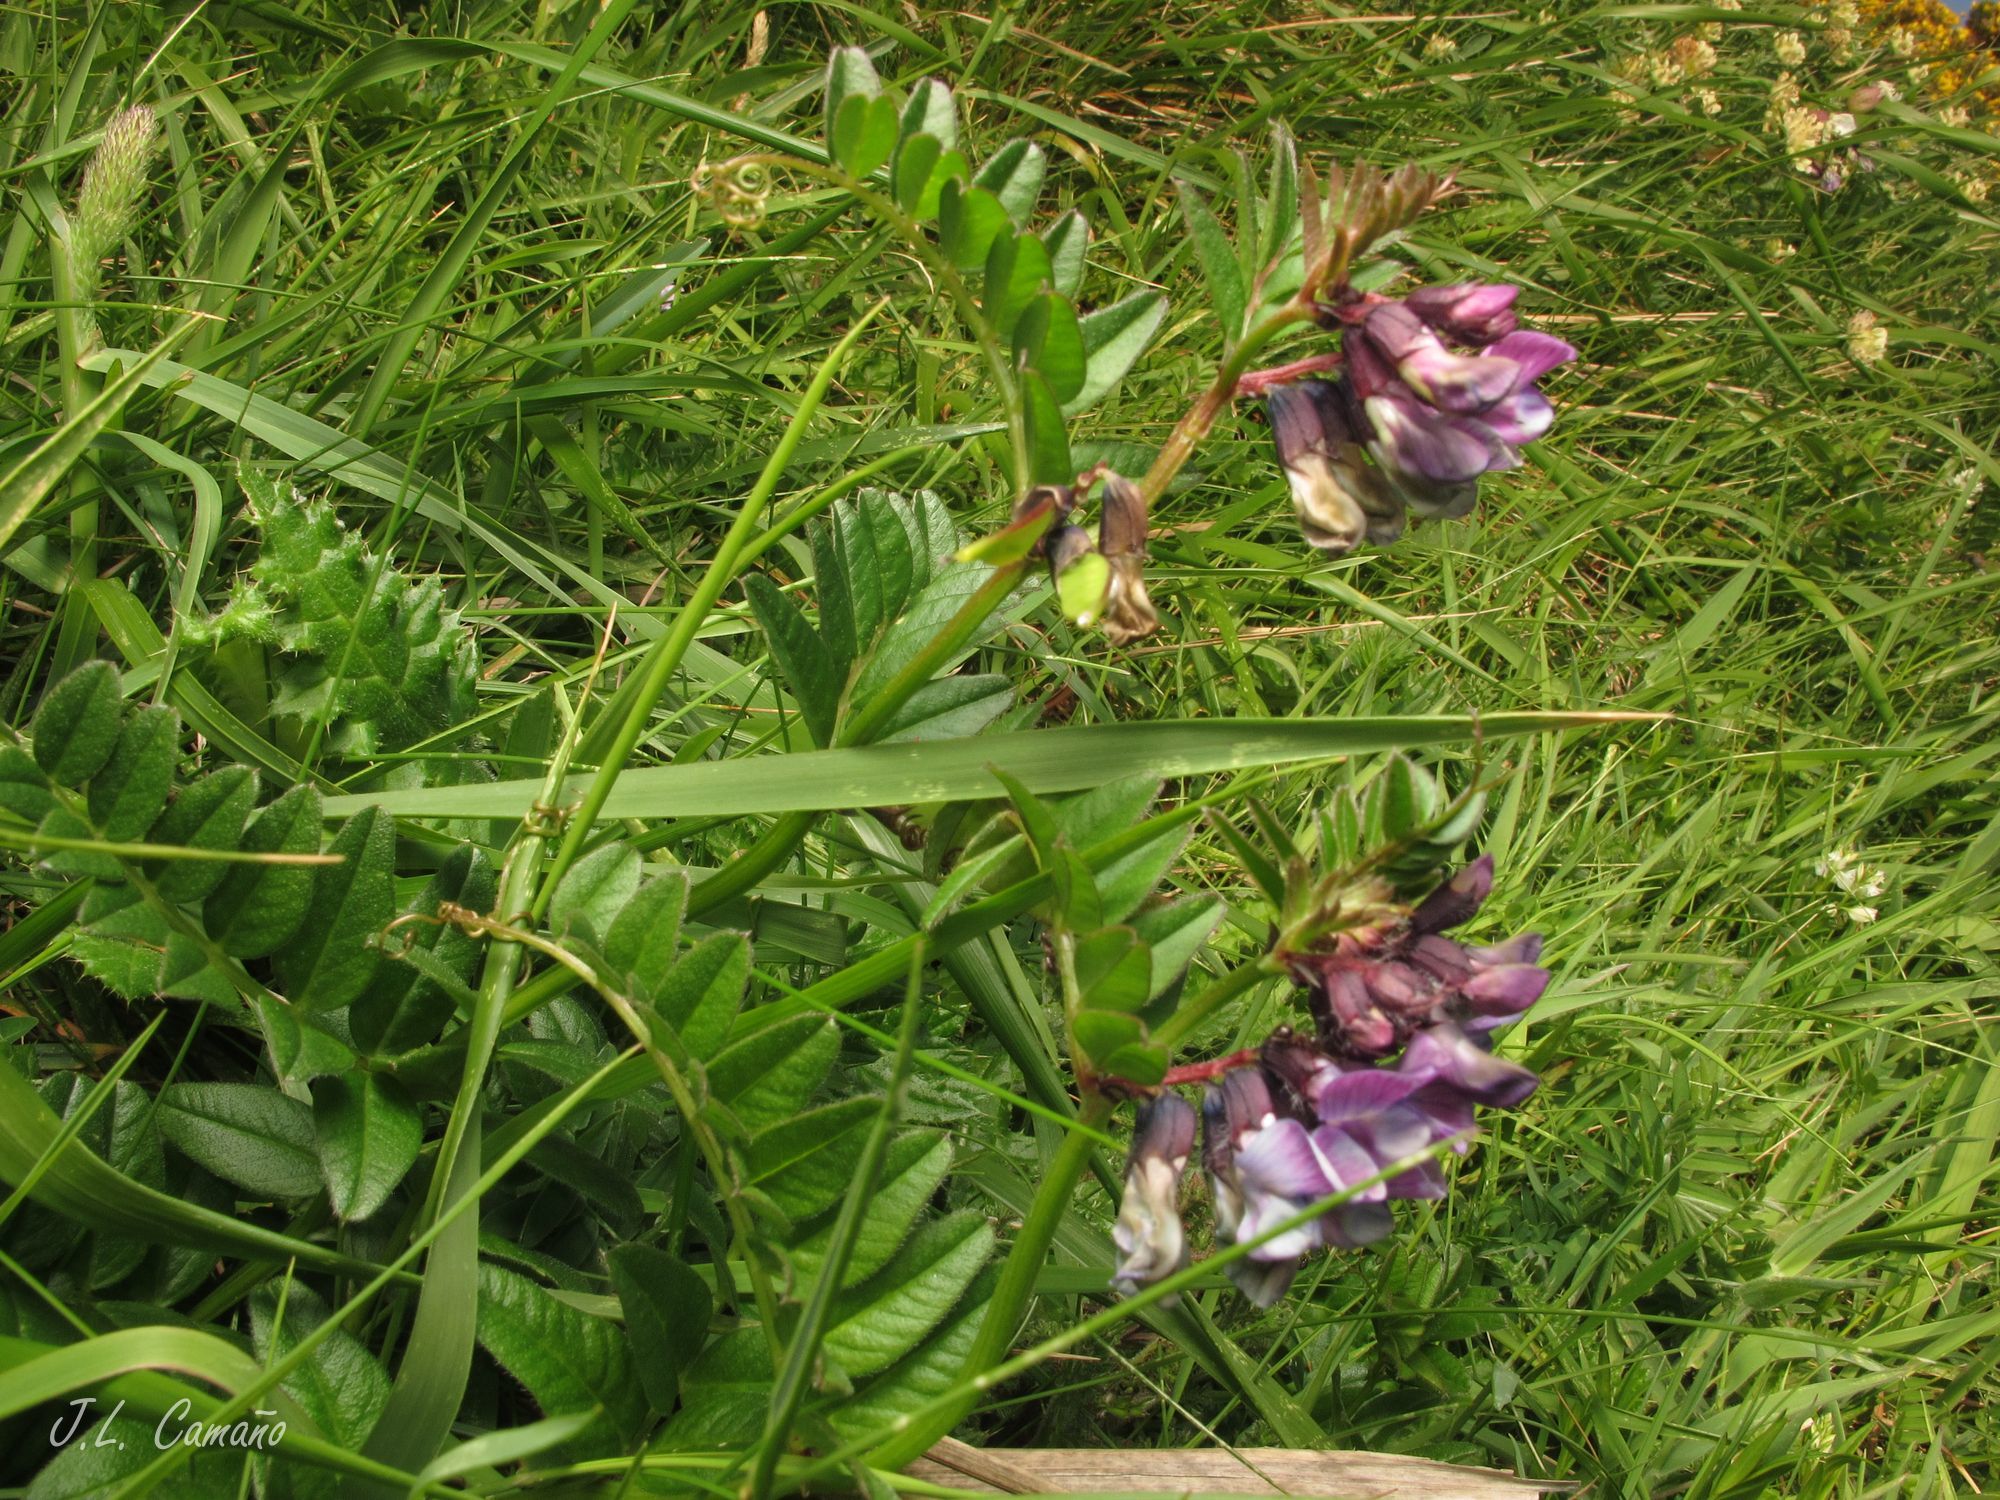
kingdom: Plantae
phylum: Tracheophyta
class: Magnoliopsida
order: Fabales
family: Fabaceae
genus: Vicia
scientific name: Vicia sepium
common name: Bush vetch
